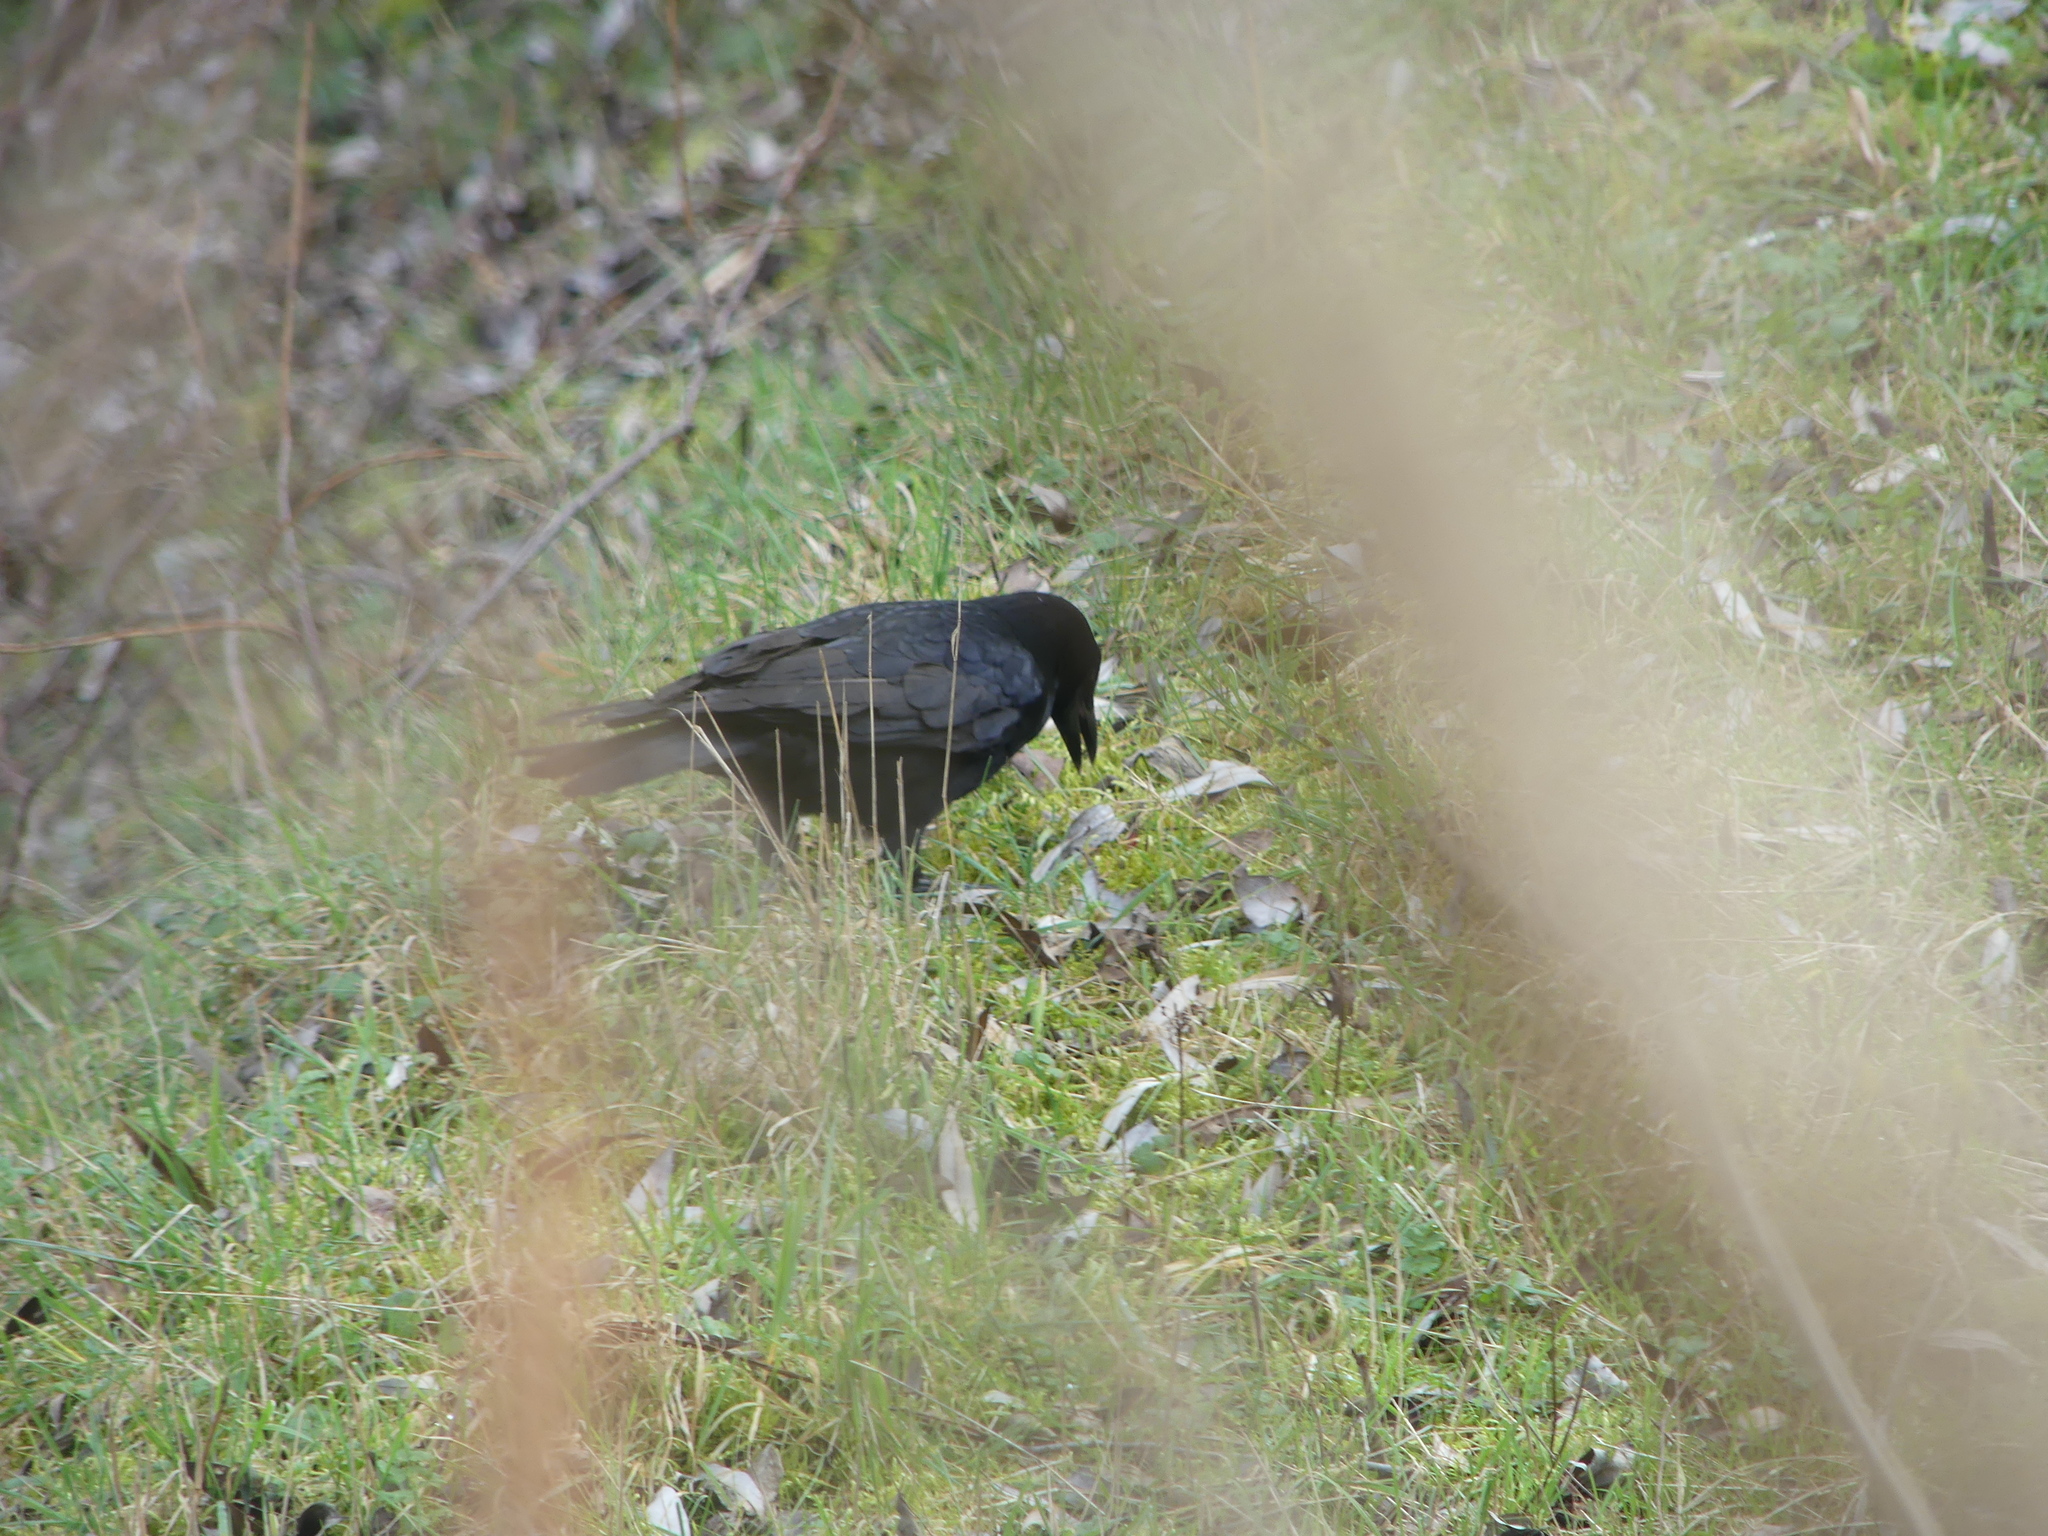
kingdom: Animalia
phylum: Chordata
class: Aves
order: Passeriformes
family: Corvidae
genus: Corvus
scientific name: Corvus corone
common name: Carrion crow
